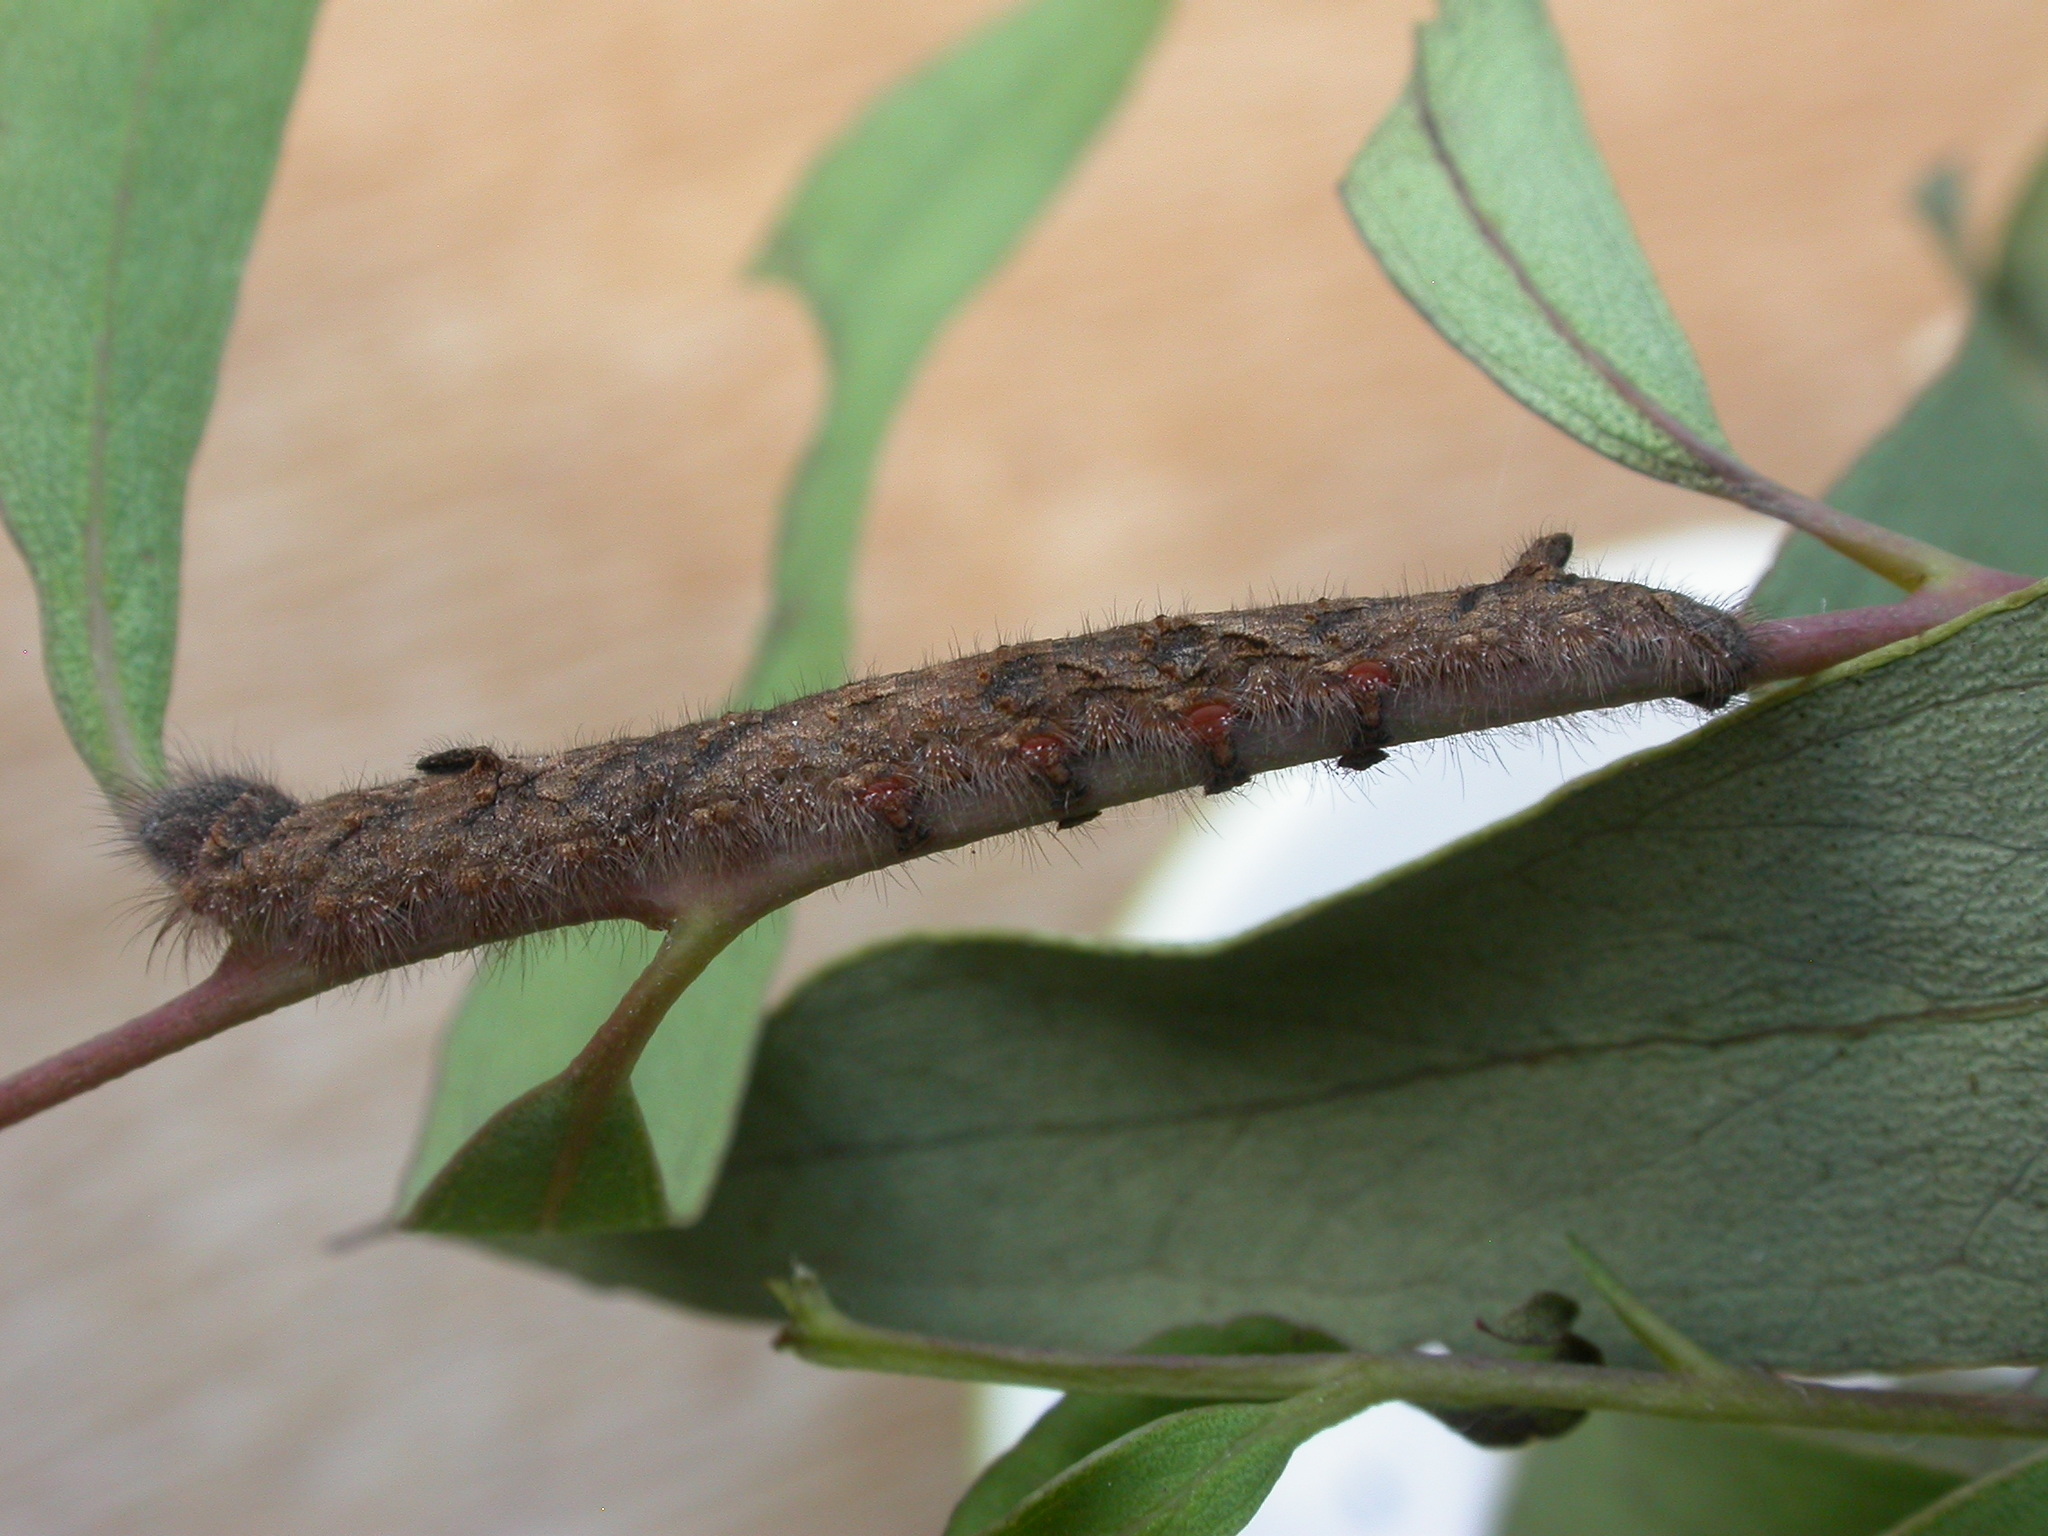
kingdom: Animalia
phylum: Arthropoda
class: Insecta
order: Lepidoptera
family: Lasiocampidae
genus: Entometa
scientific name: Entometa apicalis
